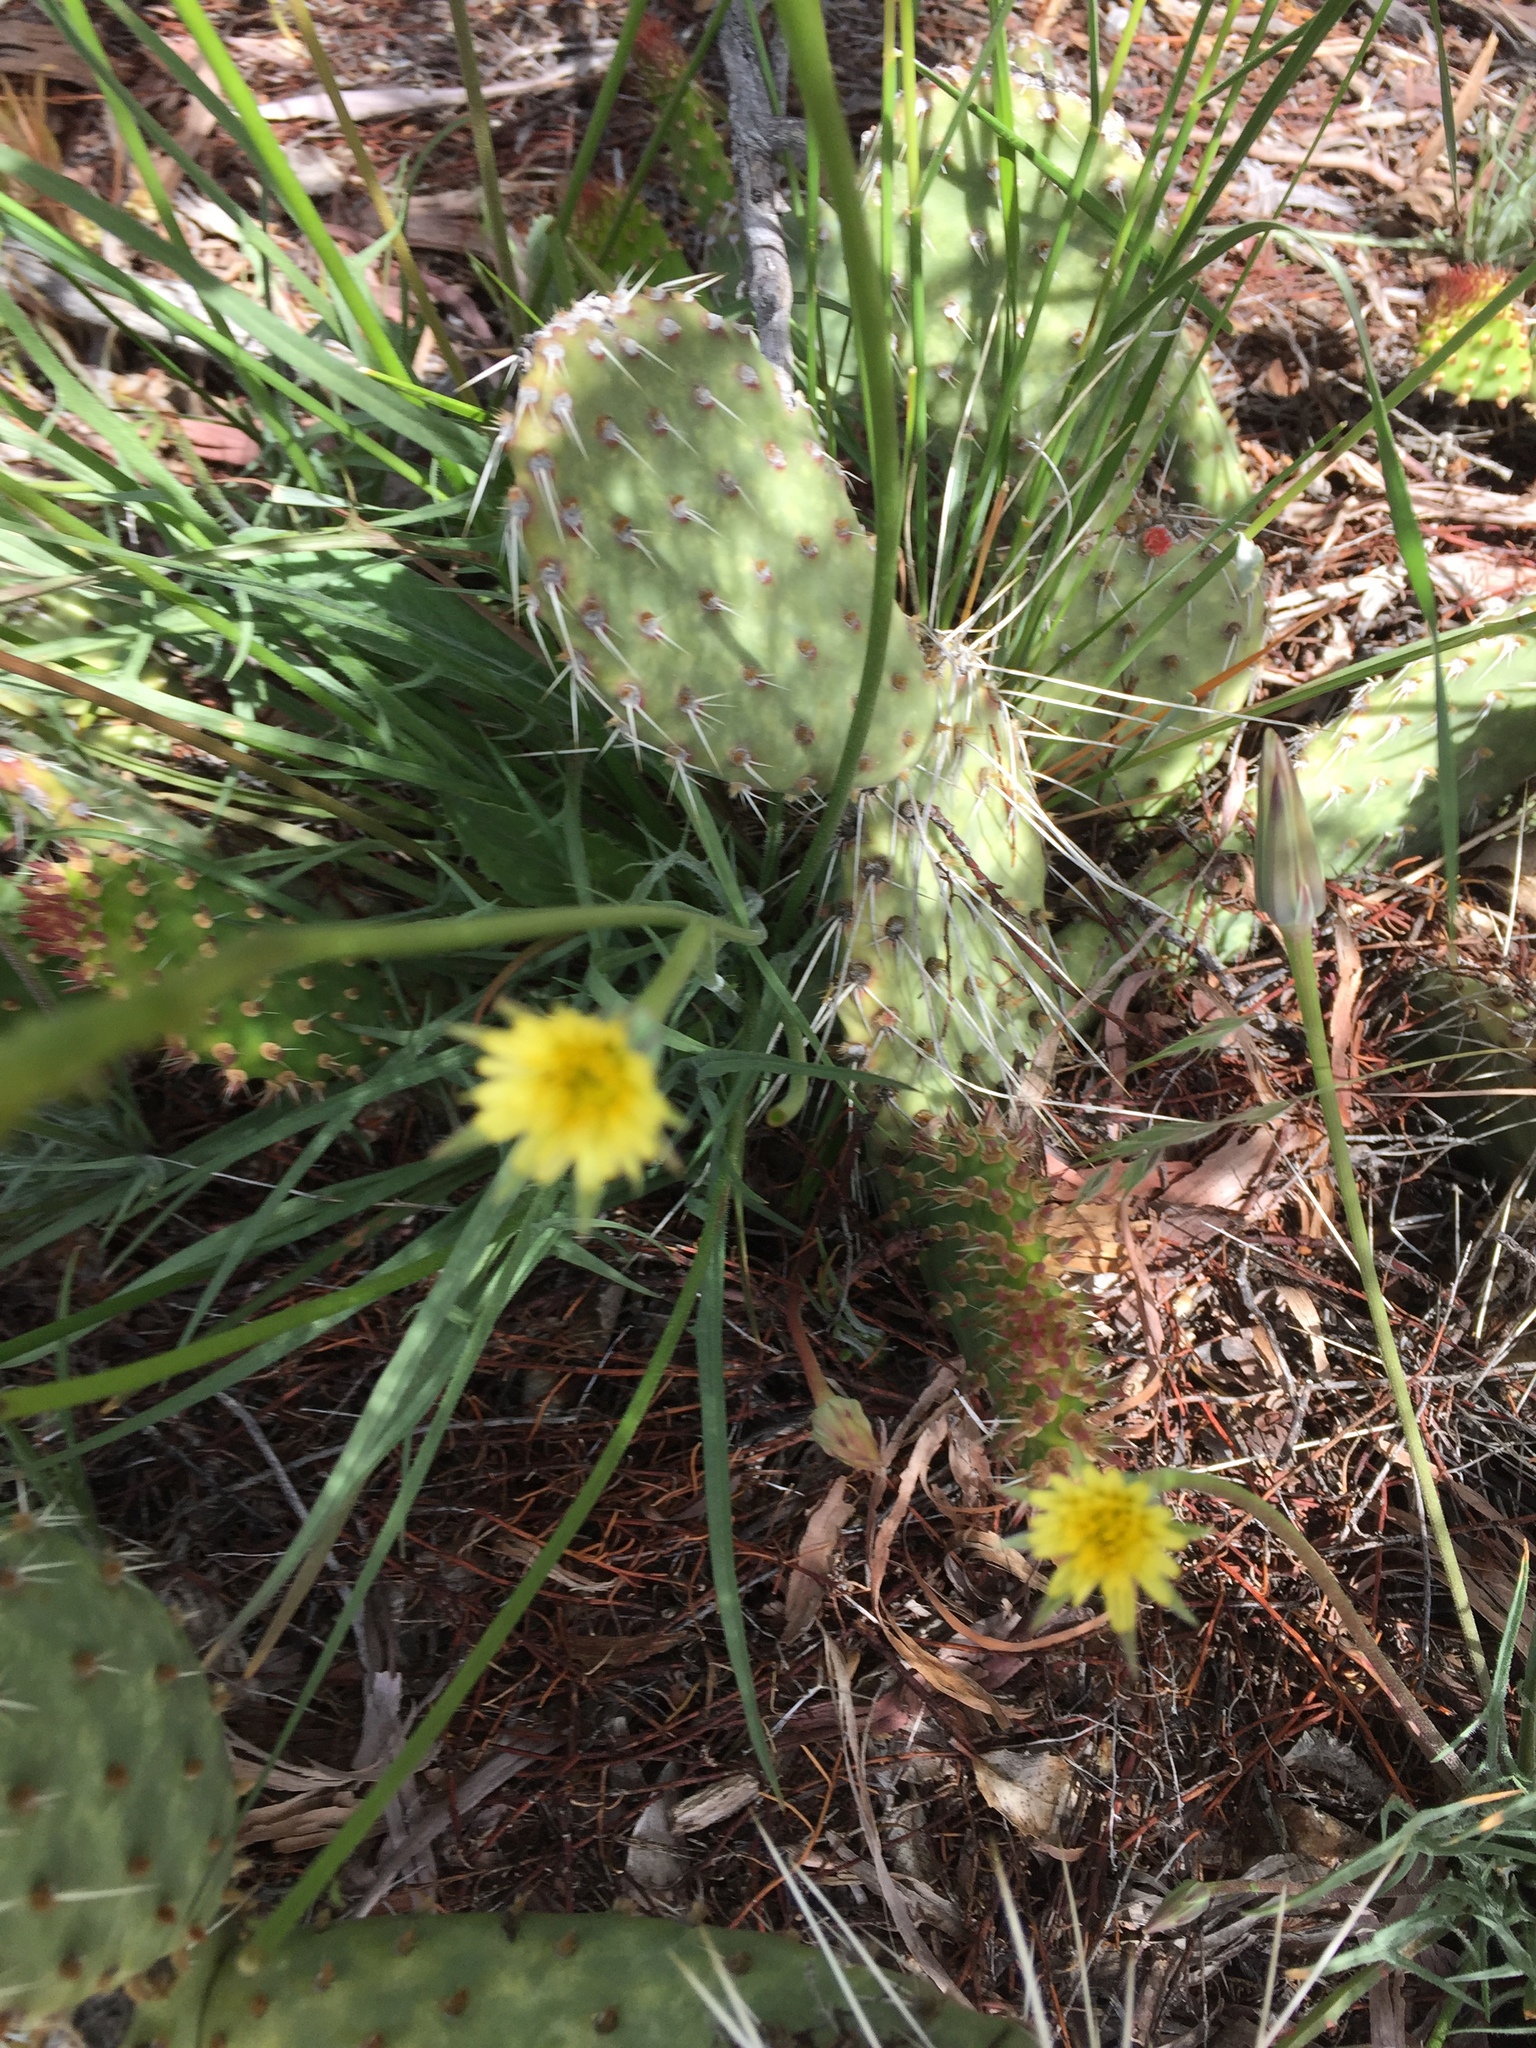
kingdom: Plantae
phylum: Tracheophyta
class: Magnoliopsida
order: Asterales
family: Asteraceae
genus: Microseris
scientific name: Microseris lindleyi
